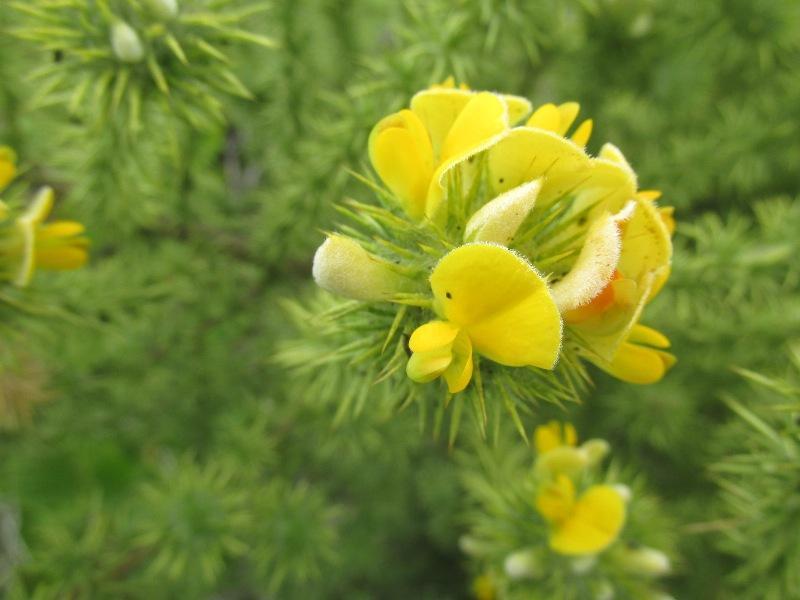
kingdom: Plantae
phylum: Tracheophyta
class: Magnoliopsida
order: Fabales
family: Fabaceae
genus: Aspalathus
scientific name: Aspalathus chenopoda
